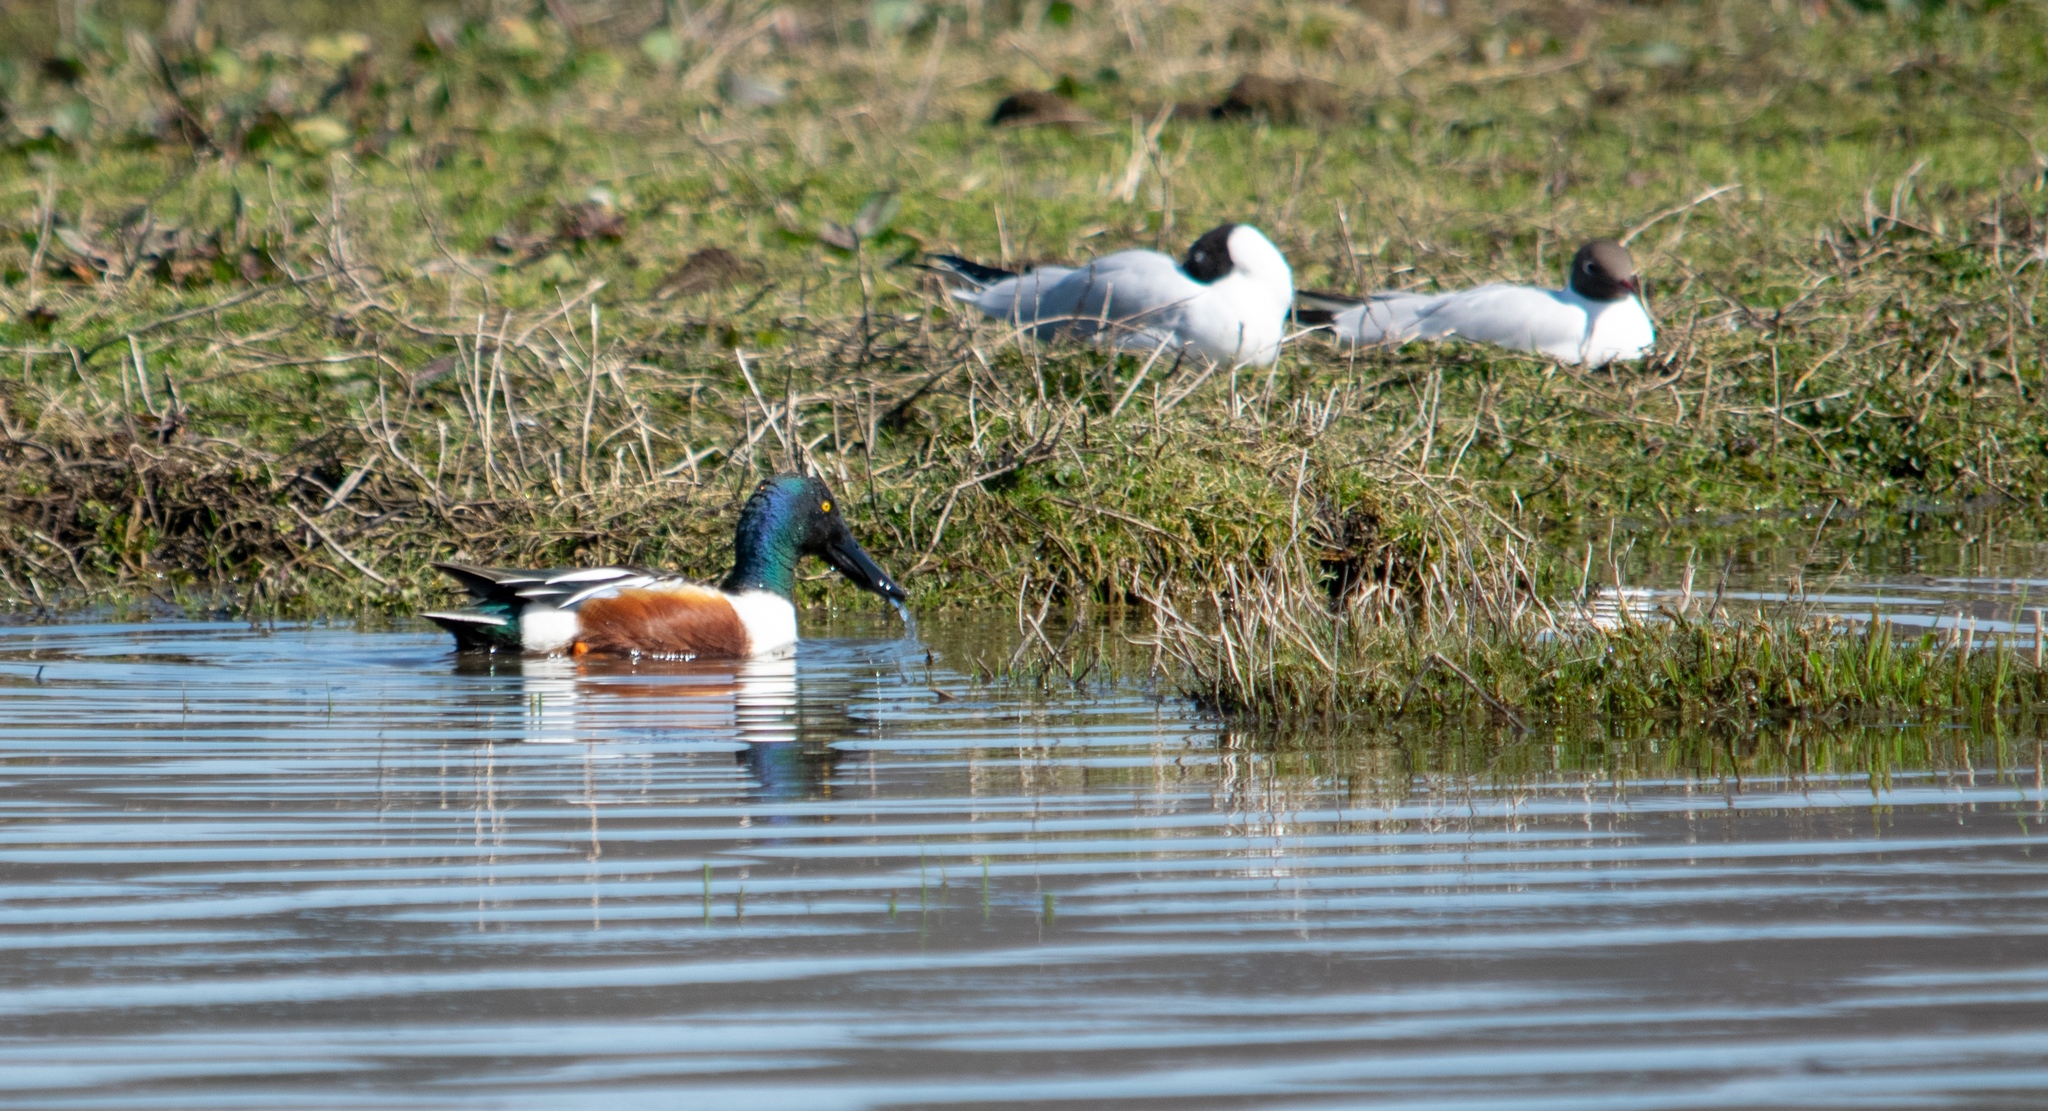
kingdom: Animalia
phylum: Chordata
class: Aves
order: Anseriformes
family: Anatidae
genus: Spatula
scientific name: Spatula clypeata
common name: Northern shoveler
